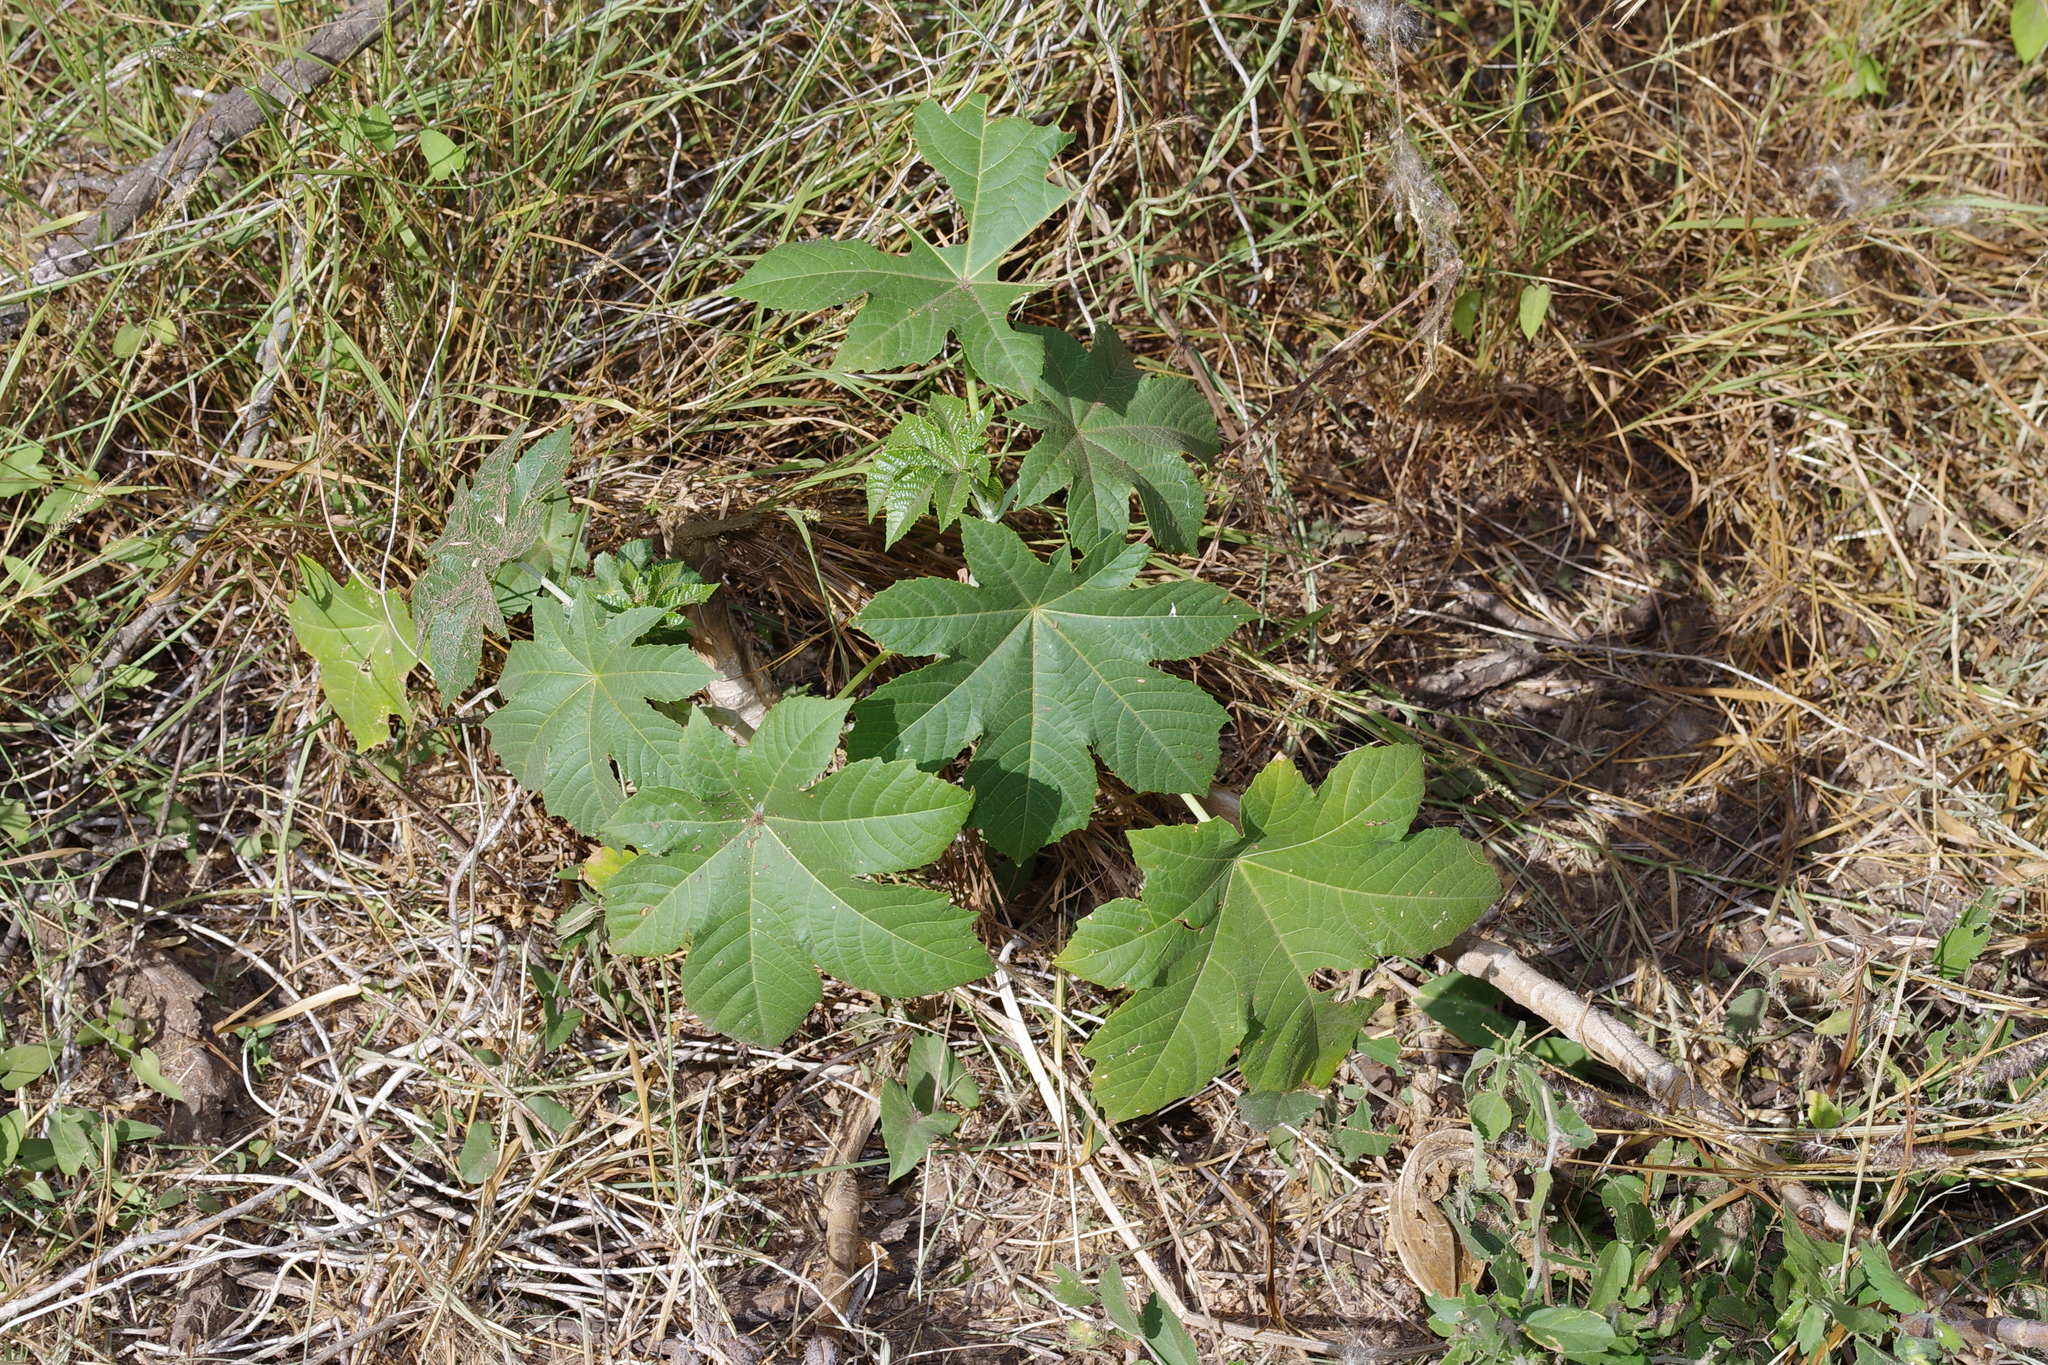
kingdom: Plantae
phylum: Tracheophyta
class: Magnoliopsida
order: Malpighiales
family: Euphorbiaceae
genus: Ricinus
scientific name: Ricinus communis
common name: Castor-oil-plant
